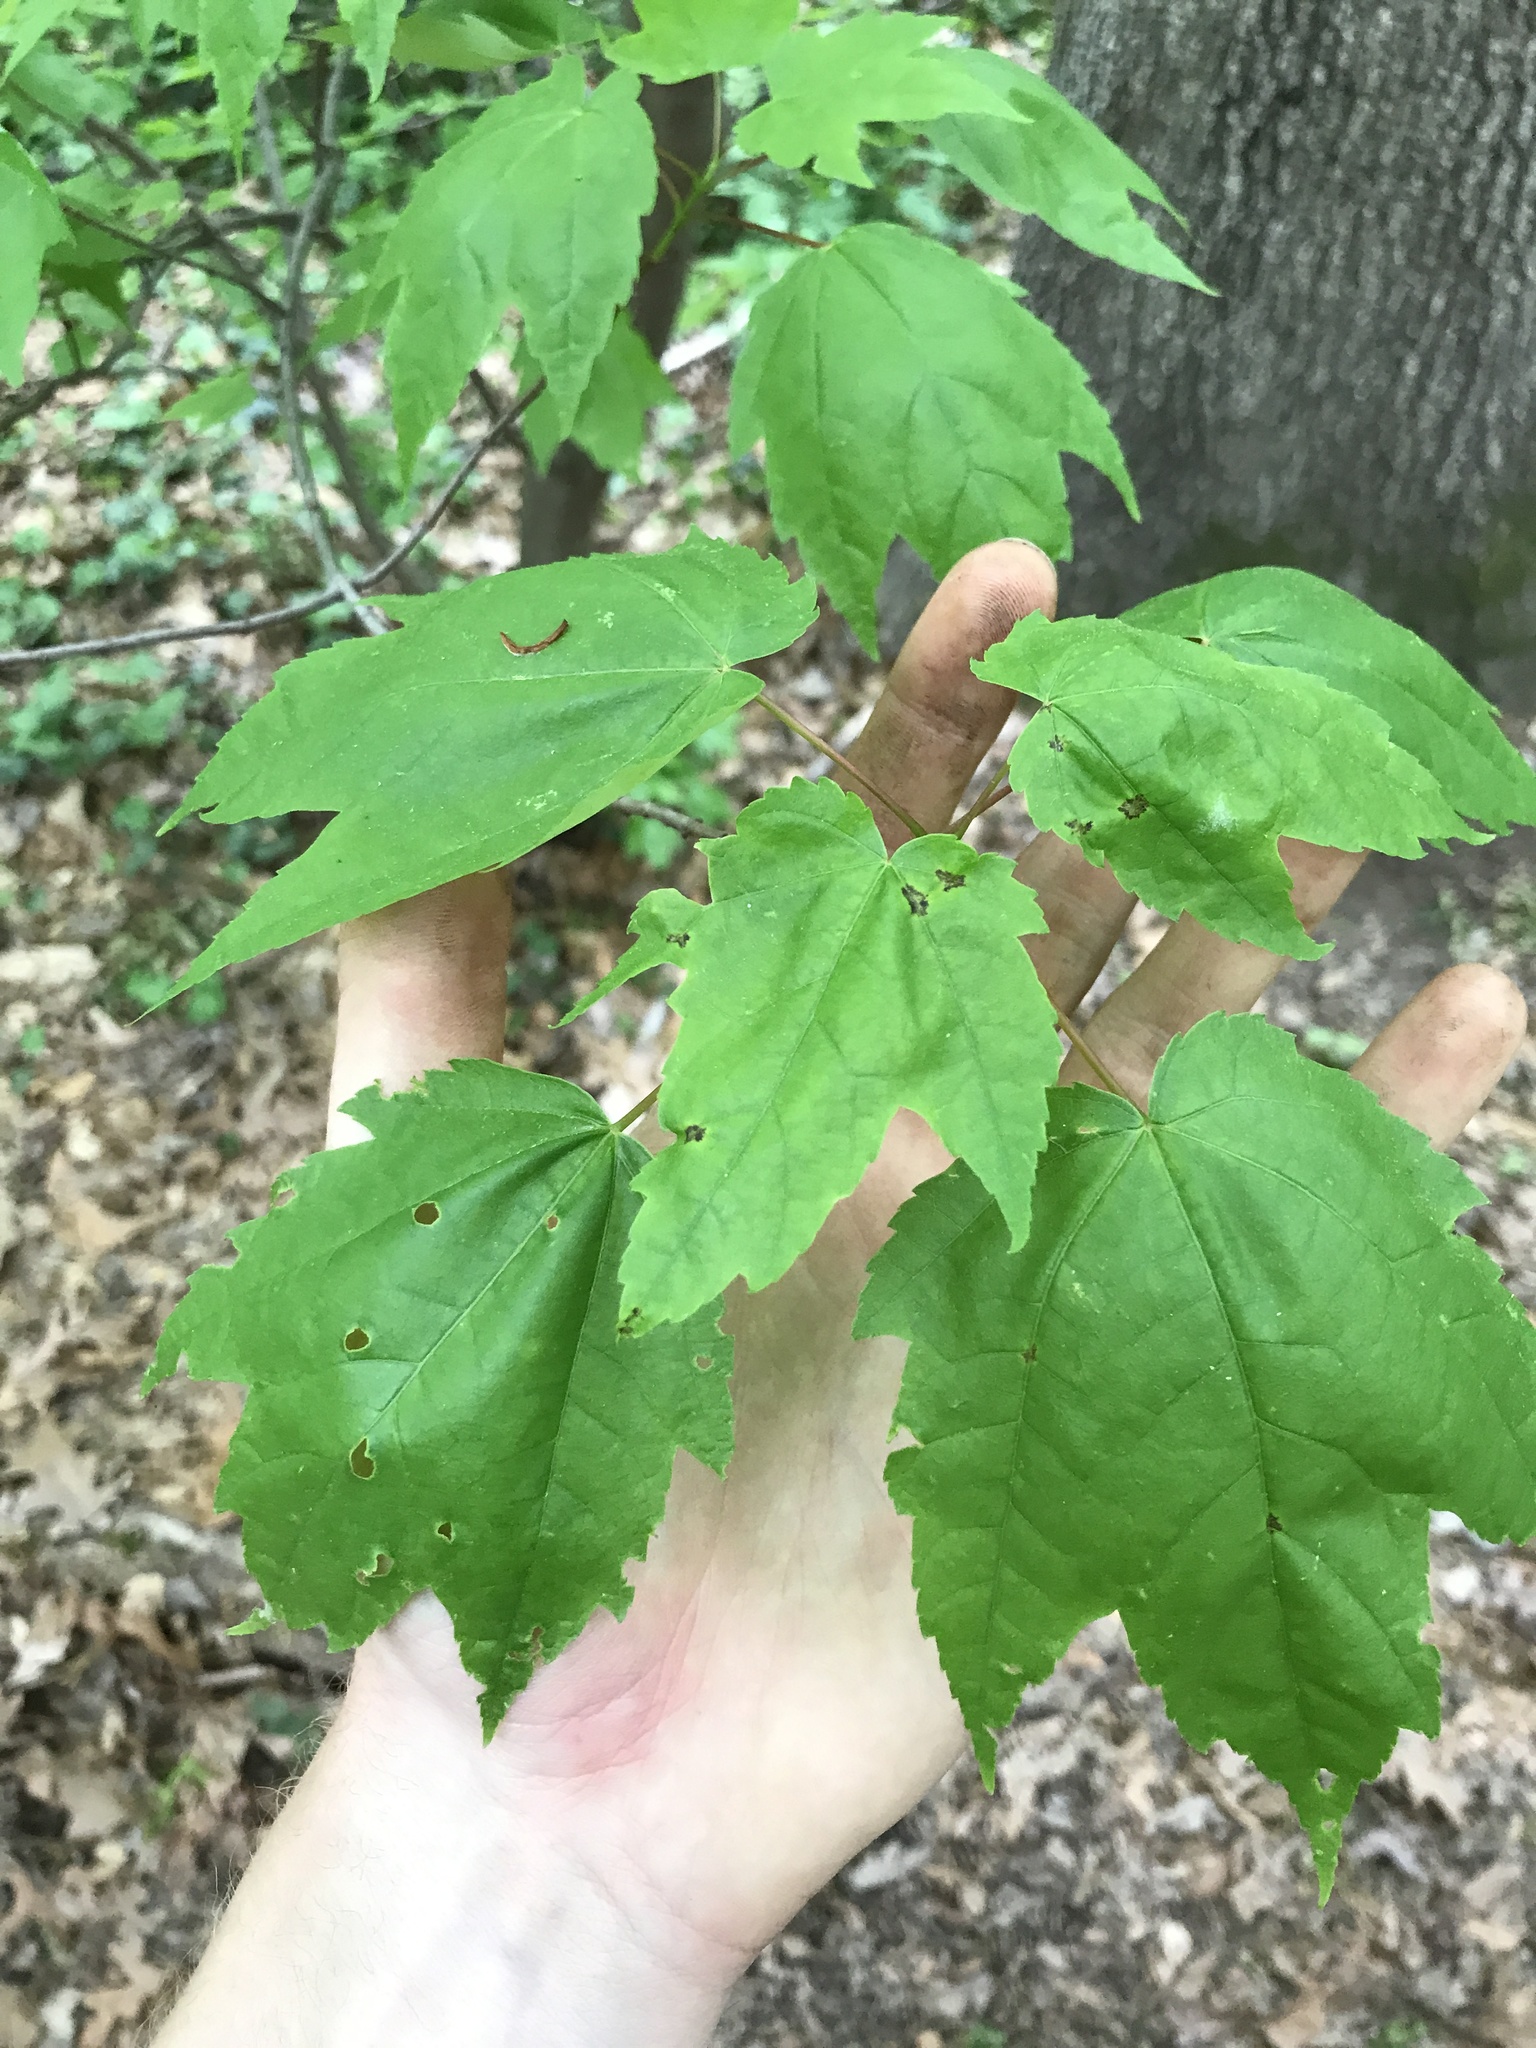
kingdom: Plantae
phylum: Tracheophyta
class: Magnoliopsida
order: Sapindales
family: Sapindaceae
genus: Acer
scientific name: Acer rubrum
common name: Red maple
